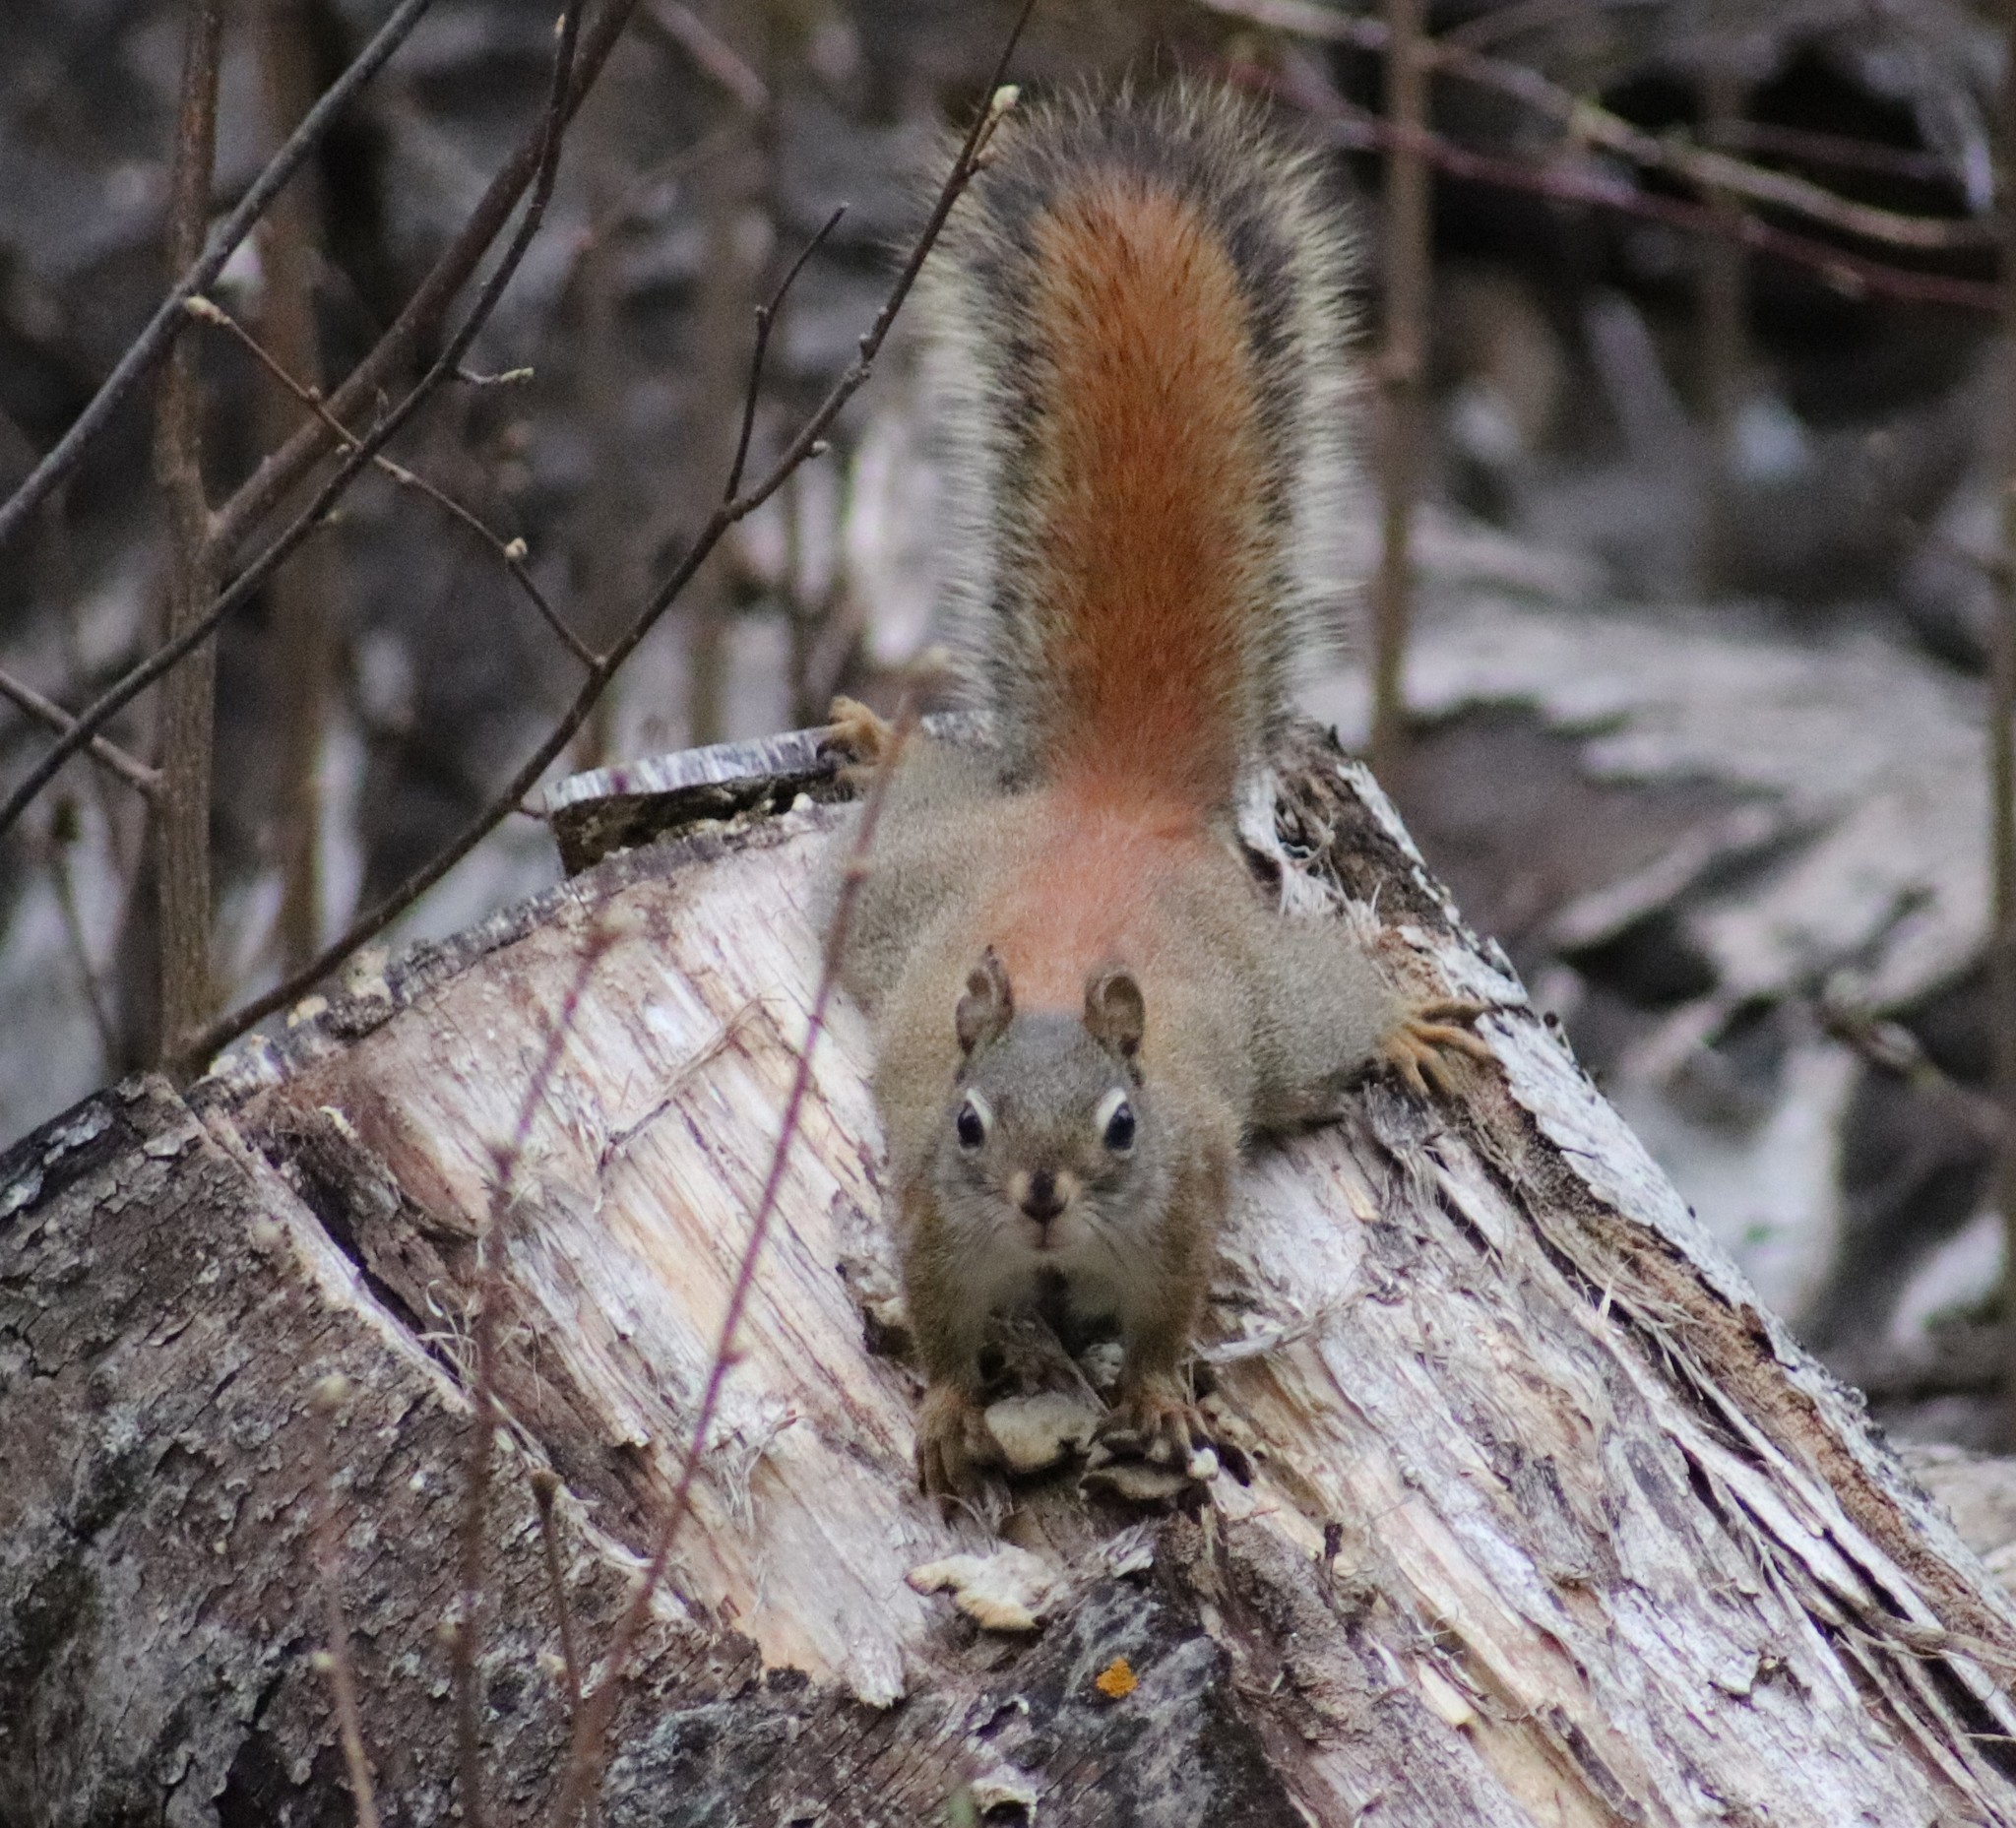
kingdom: Animalia
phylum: Chordata
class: Mammalia
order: Rodentia
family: Sciuridae
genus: Tamiasciurus
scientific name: Tamiasciurus hudsonicus
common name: Red squirrel
